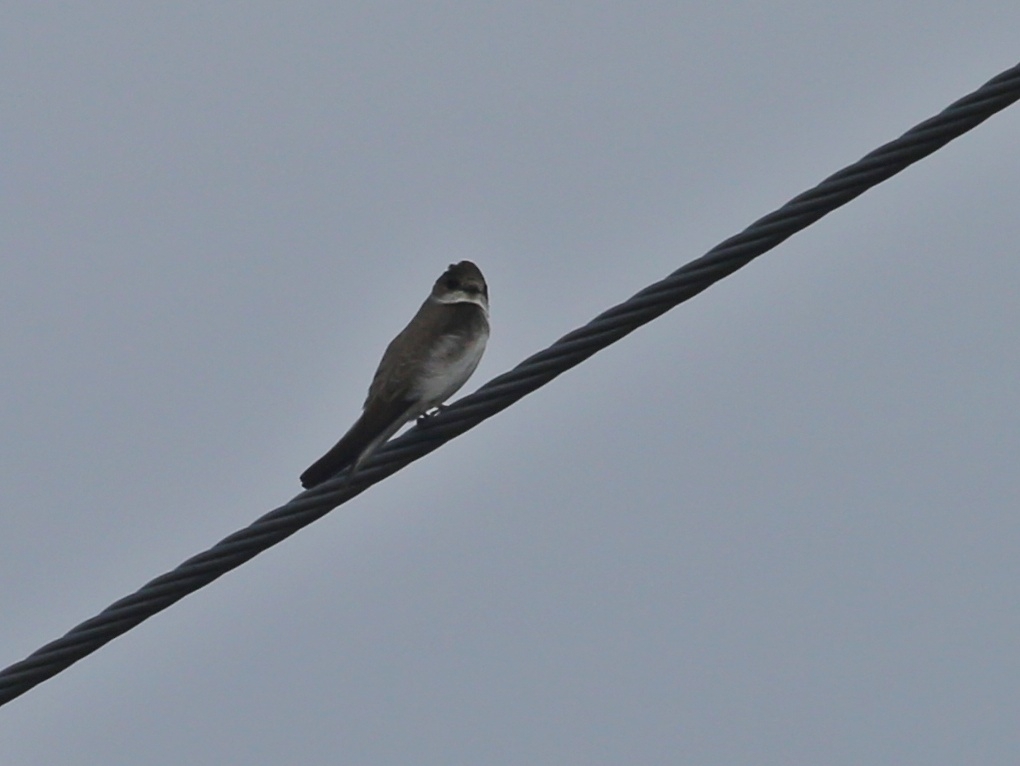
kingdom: Animalia
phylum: Chordata
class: Aves
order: Passeriformes
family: Hirundinidae
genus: Riparia
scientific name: Riparia riparia
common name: Sand martin
